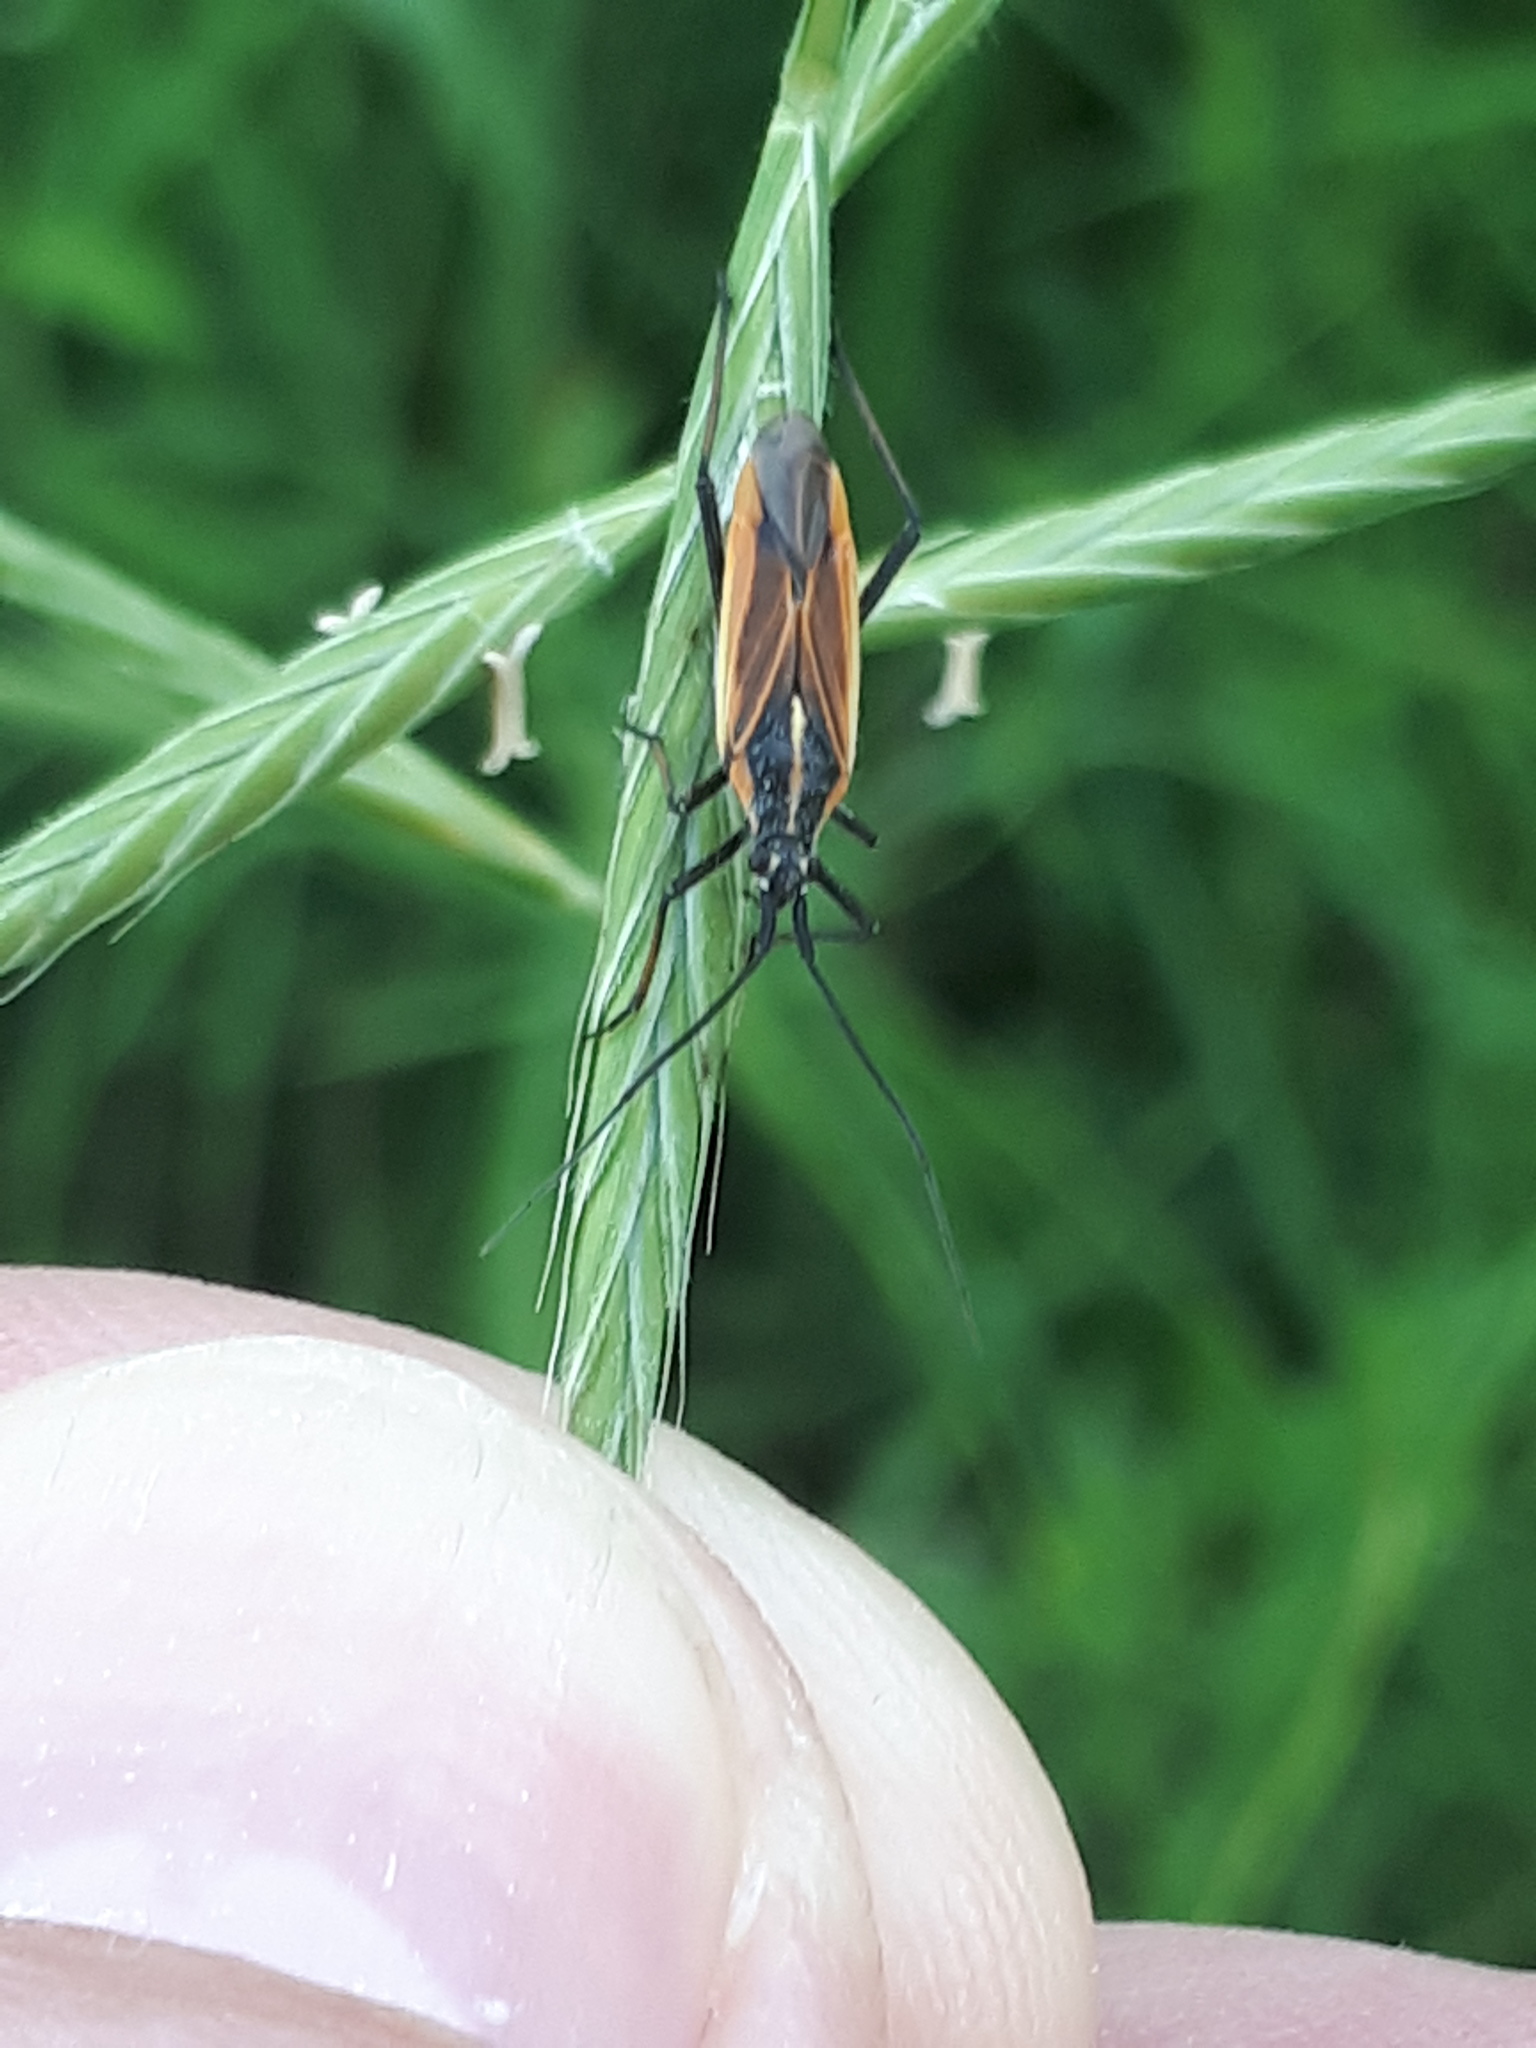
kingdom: Animalia
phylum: Arthropoda
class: Insecta
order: Hemiptera
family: Miridae
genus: Leptopterna
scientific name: Leptopterna dolabrata
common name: Meadow plant bug
